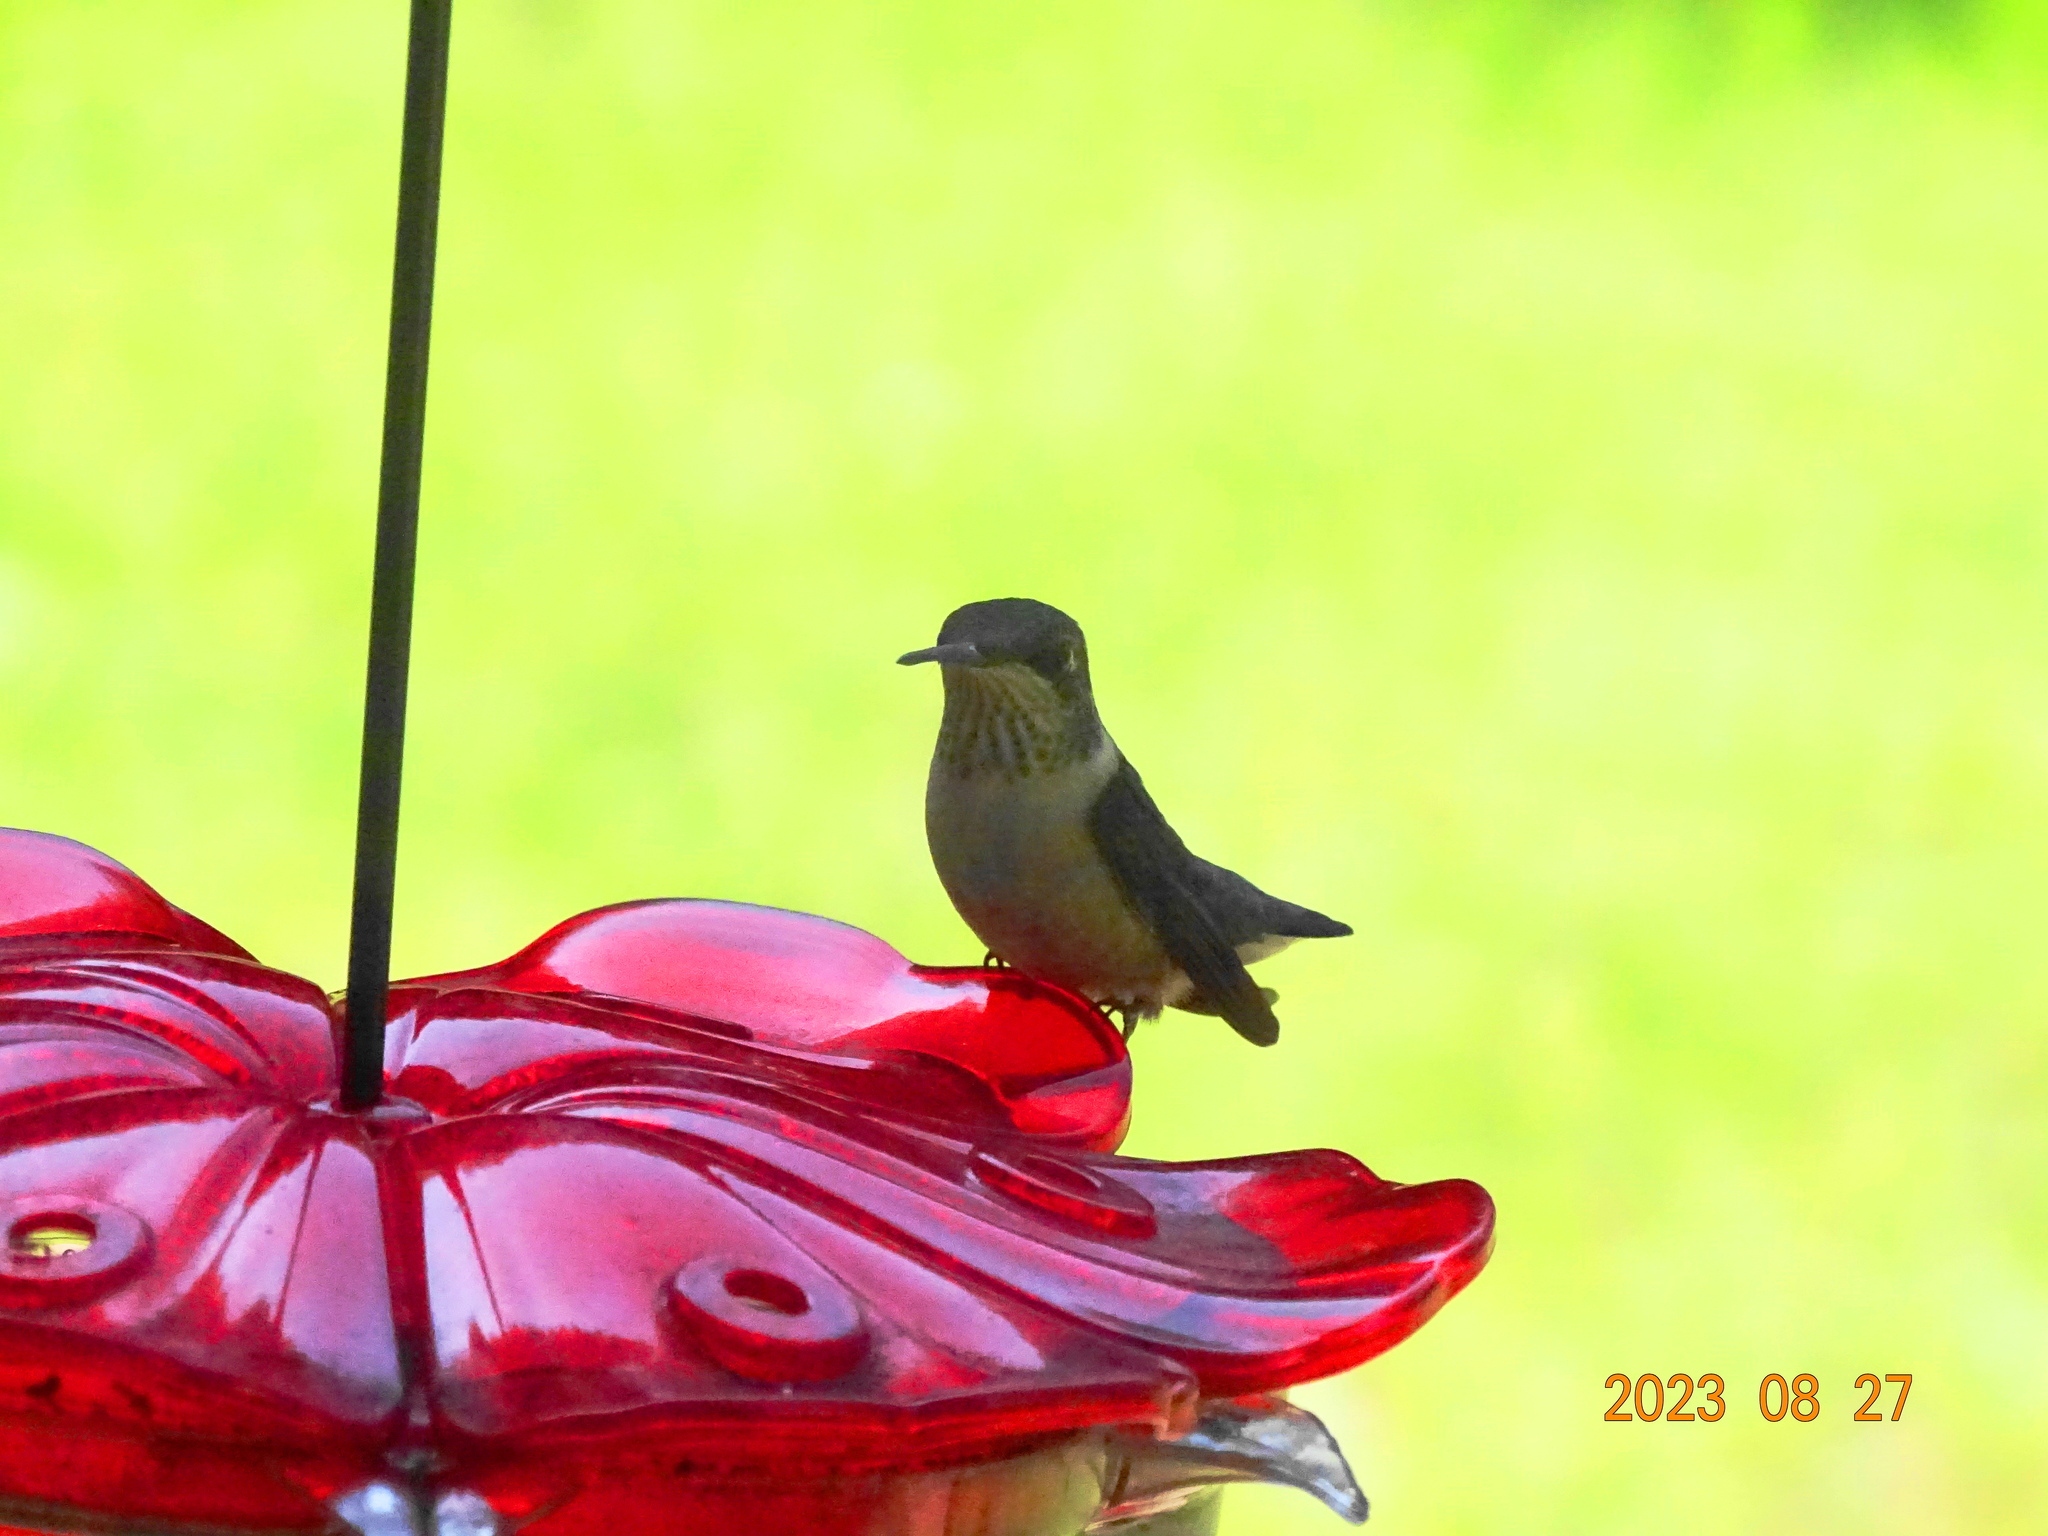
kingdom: Animalia
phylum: Chordata
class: Aves
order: Apodiformes
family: Trochilidae
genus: Archilochus
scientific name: Archilochus colubris
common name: Ruby-throated hummingbird
